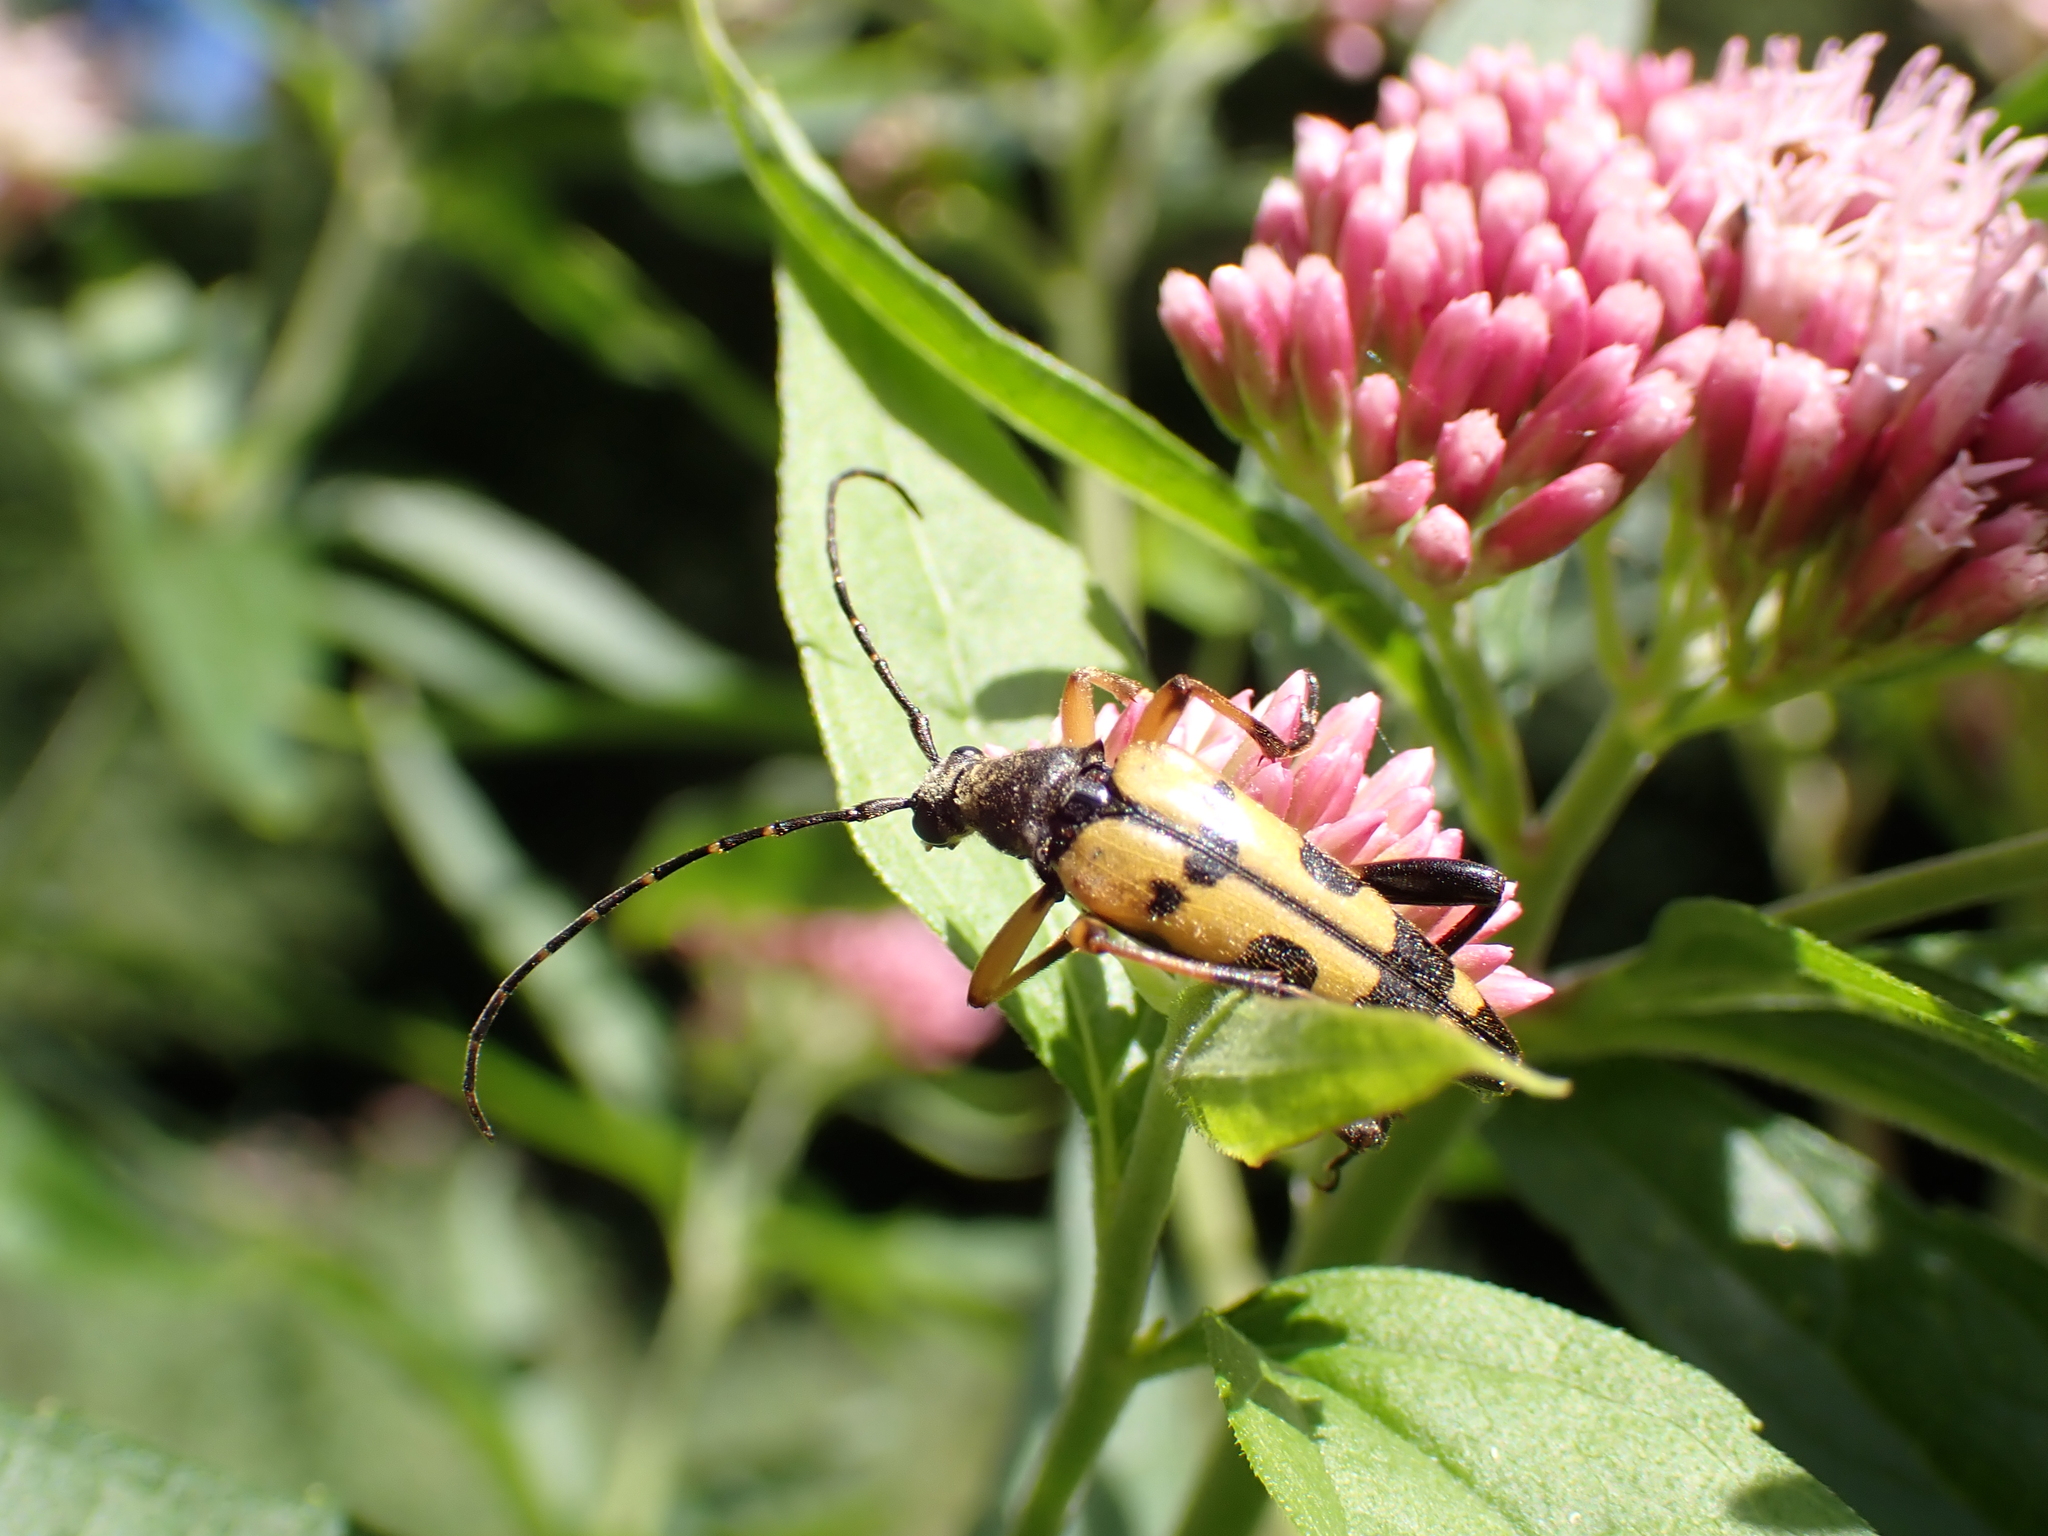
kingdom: Animalia
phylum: Arthropoda
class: Insecta
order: Coleoptera
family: Cerambycidae
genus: Rutpela
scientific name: Rutpela maculata
